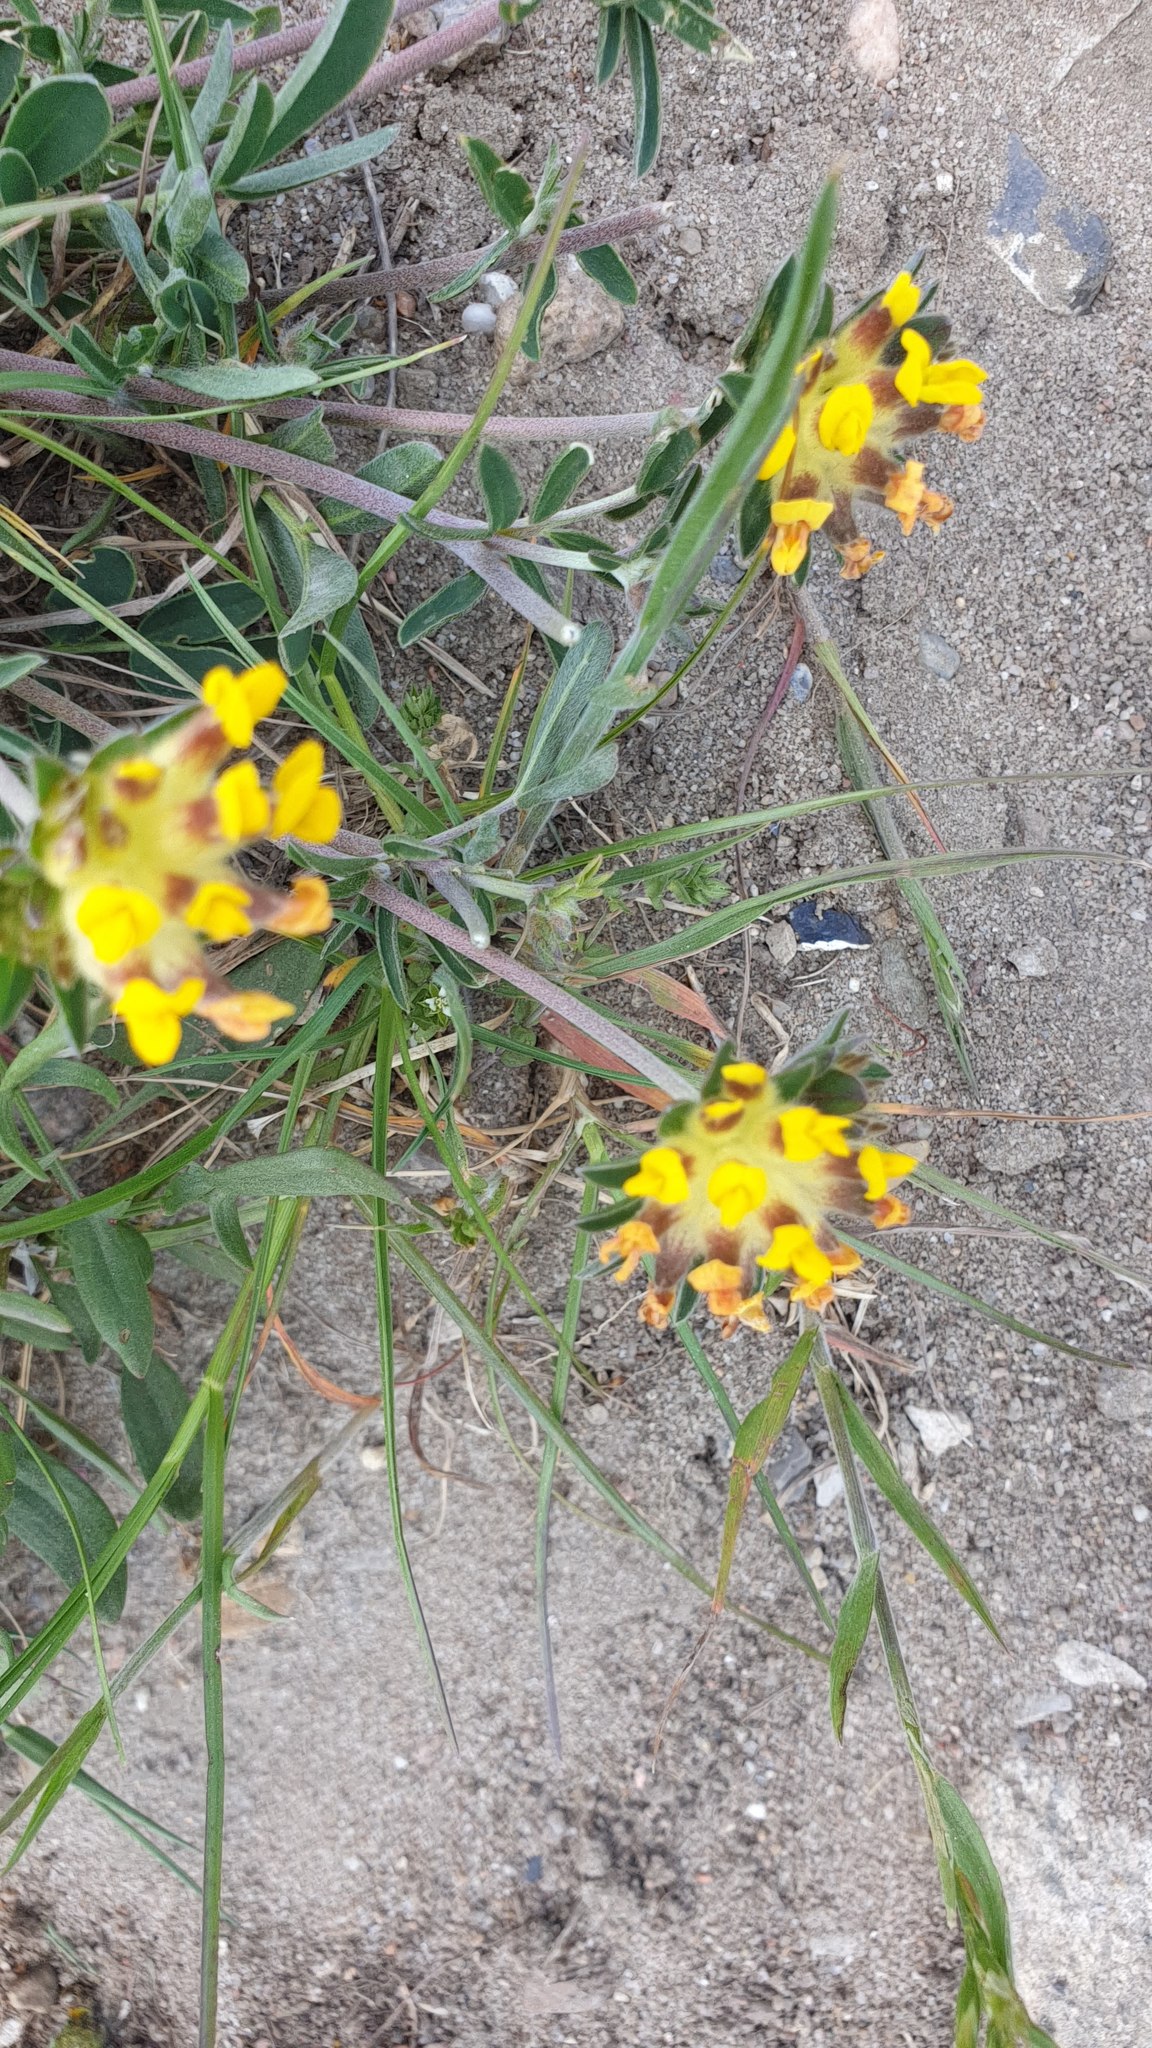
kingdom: Plantae
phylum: Tracheophyta
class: Magnoliopsida
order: Fabales
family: Fabaceae
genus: Anthyllis
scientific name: Anthyllis vulneraria
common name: Kidney vetch
